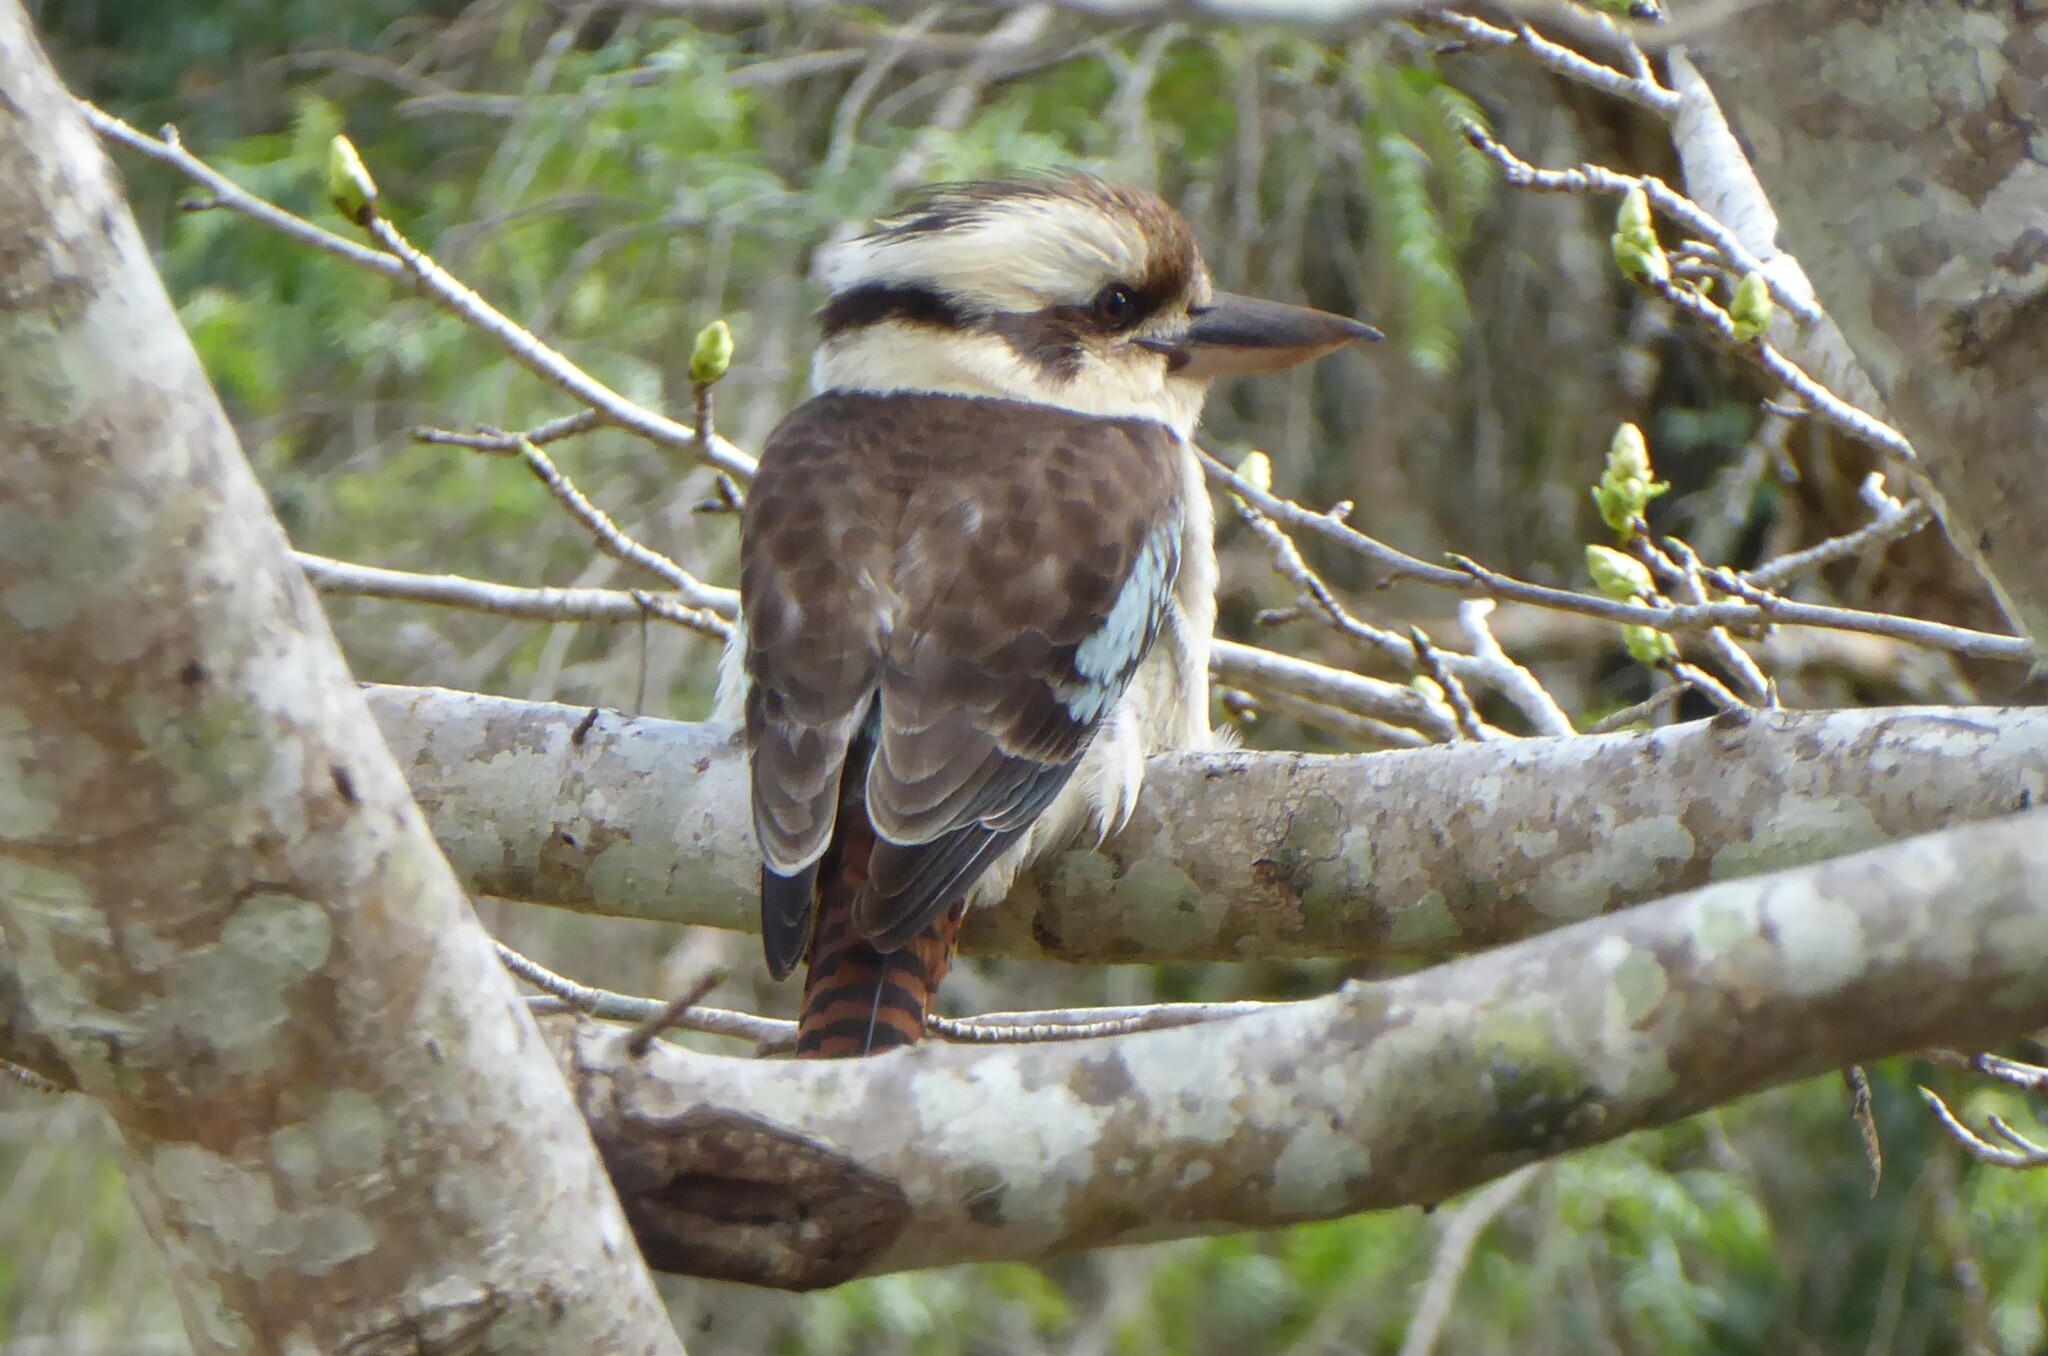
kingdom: Animalia
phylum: Chordata
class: Aves
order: Coraciiformes
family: Alcedinidae
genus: Dacelo
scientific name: Dacelo novaeguineae
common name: Laughing kookaburra
